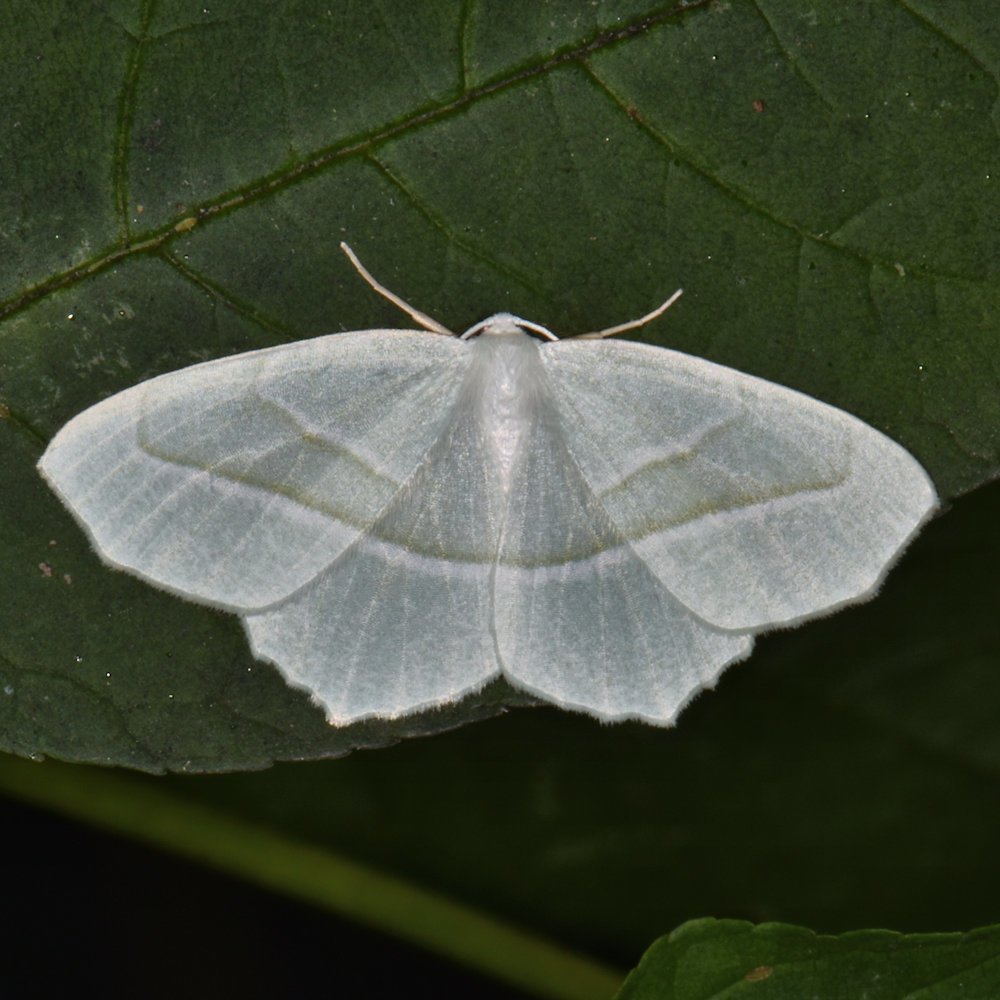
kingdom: Animalia
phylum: Arthropoda
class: Insecta
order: Lepidoptera
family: Geometridae
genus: Campaea
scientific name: Campaea perlata
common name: Fringed looper
